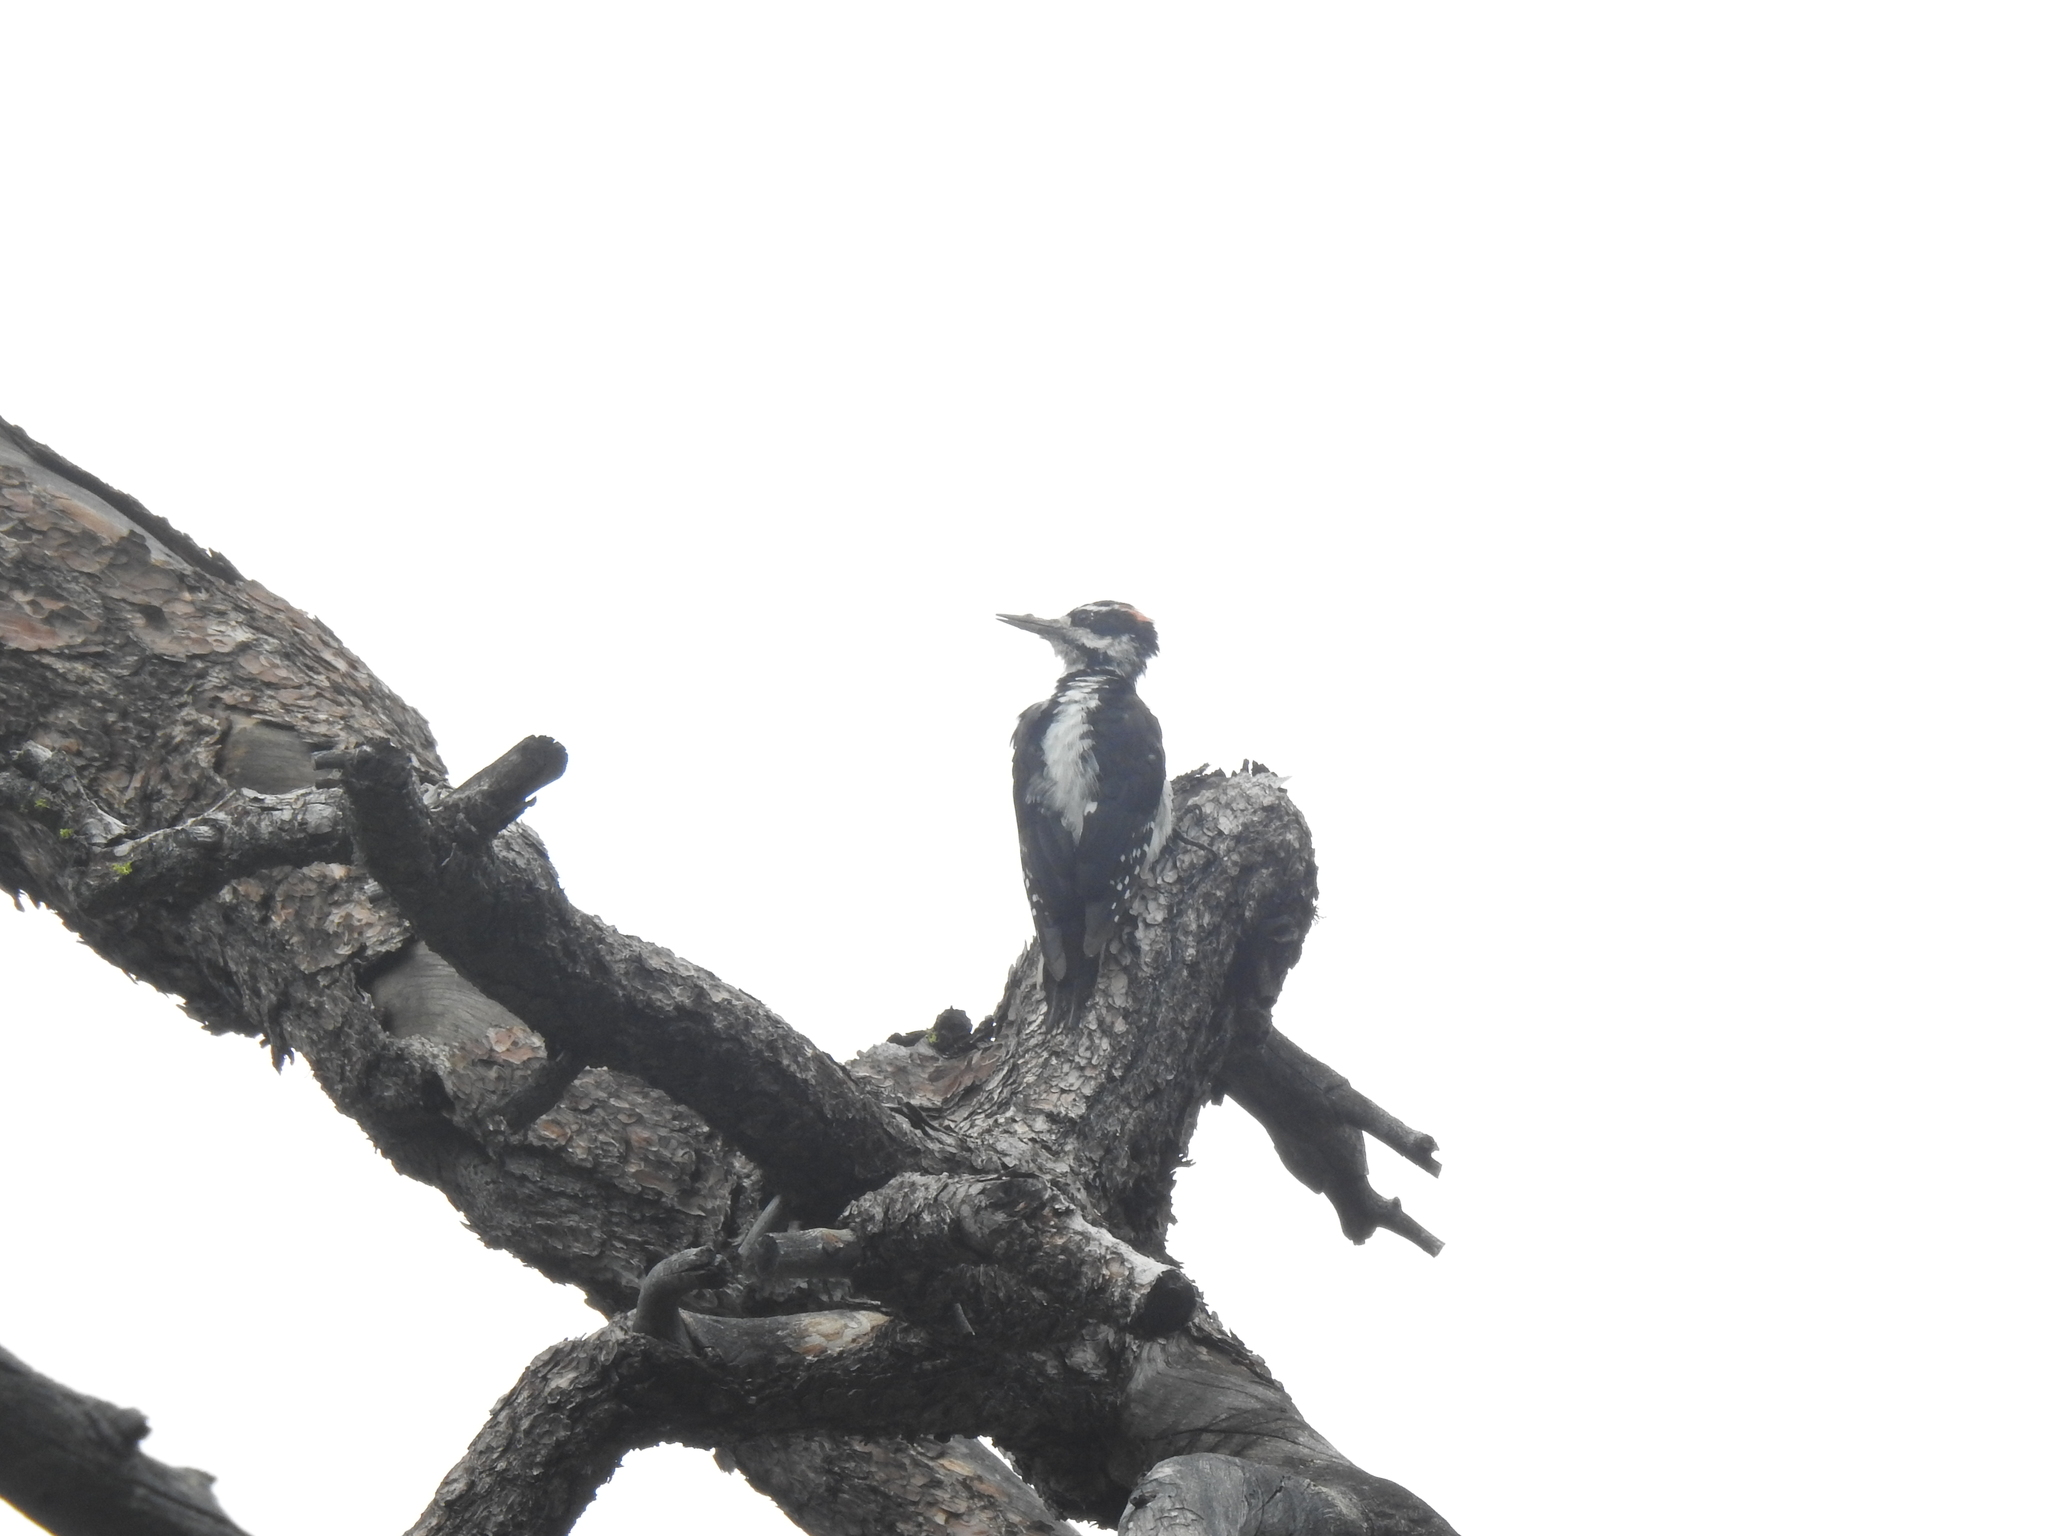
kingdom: Animalia
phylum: Chordata
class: Aves
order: Piciformes
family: Picidae
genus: Leuconotopicus
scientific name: Leuconotopicus villosus
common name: Hairy woodpecker
